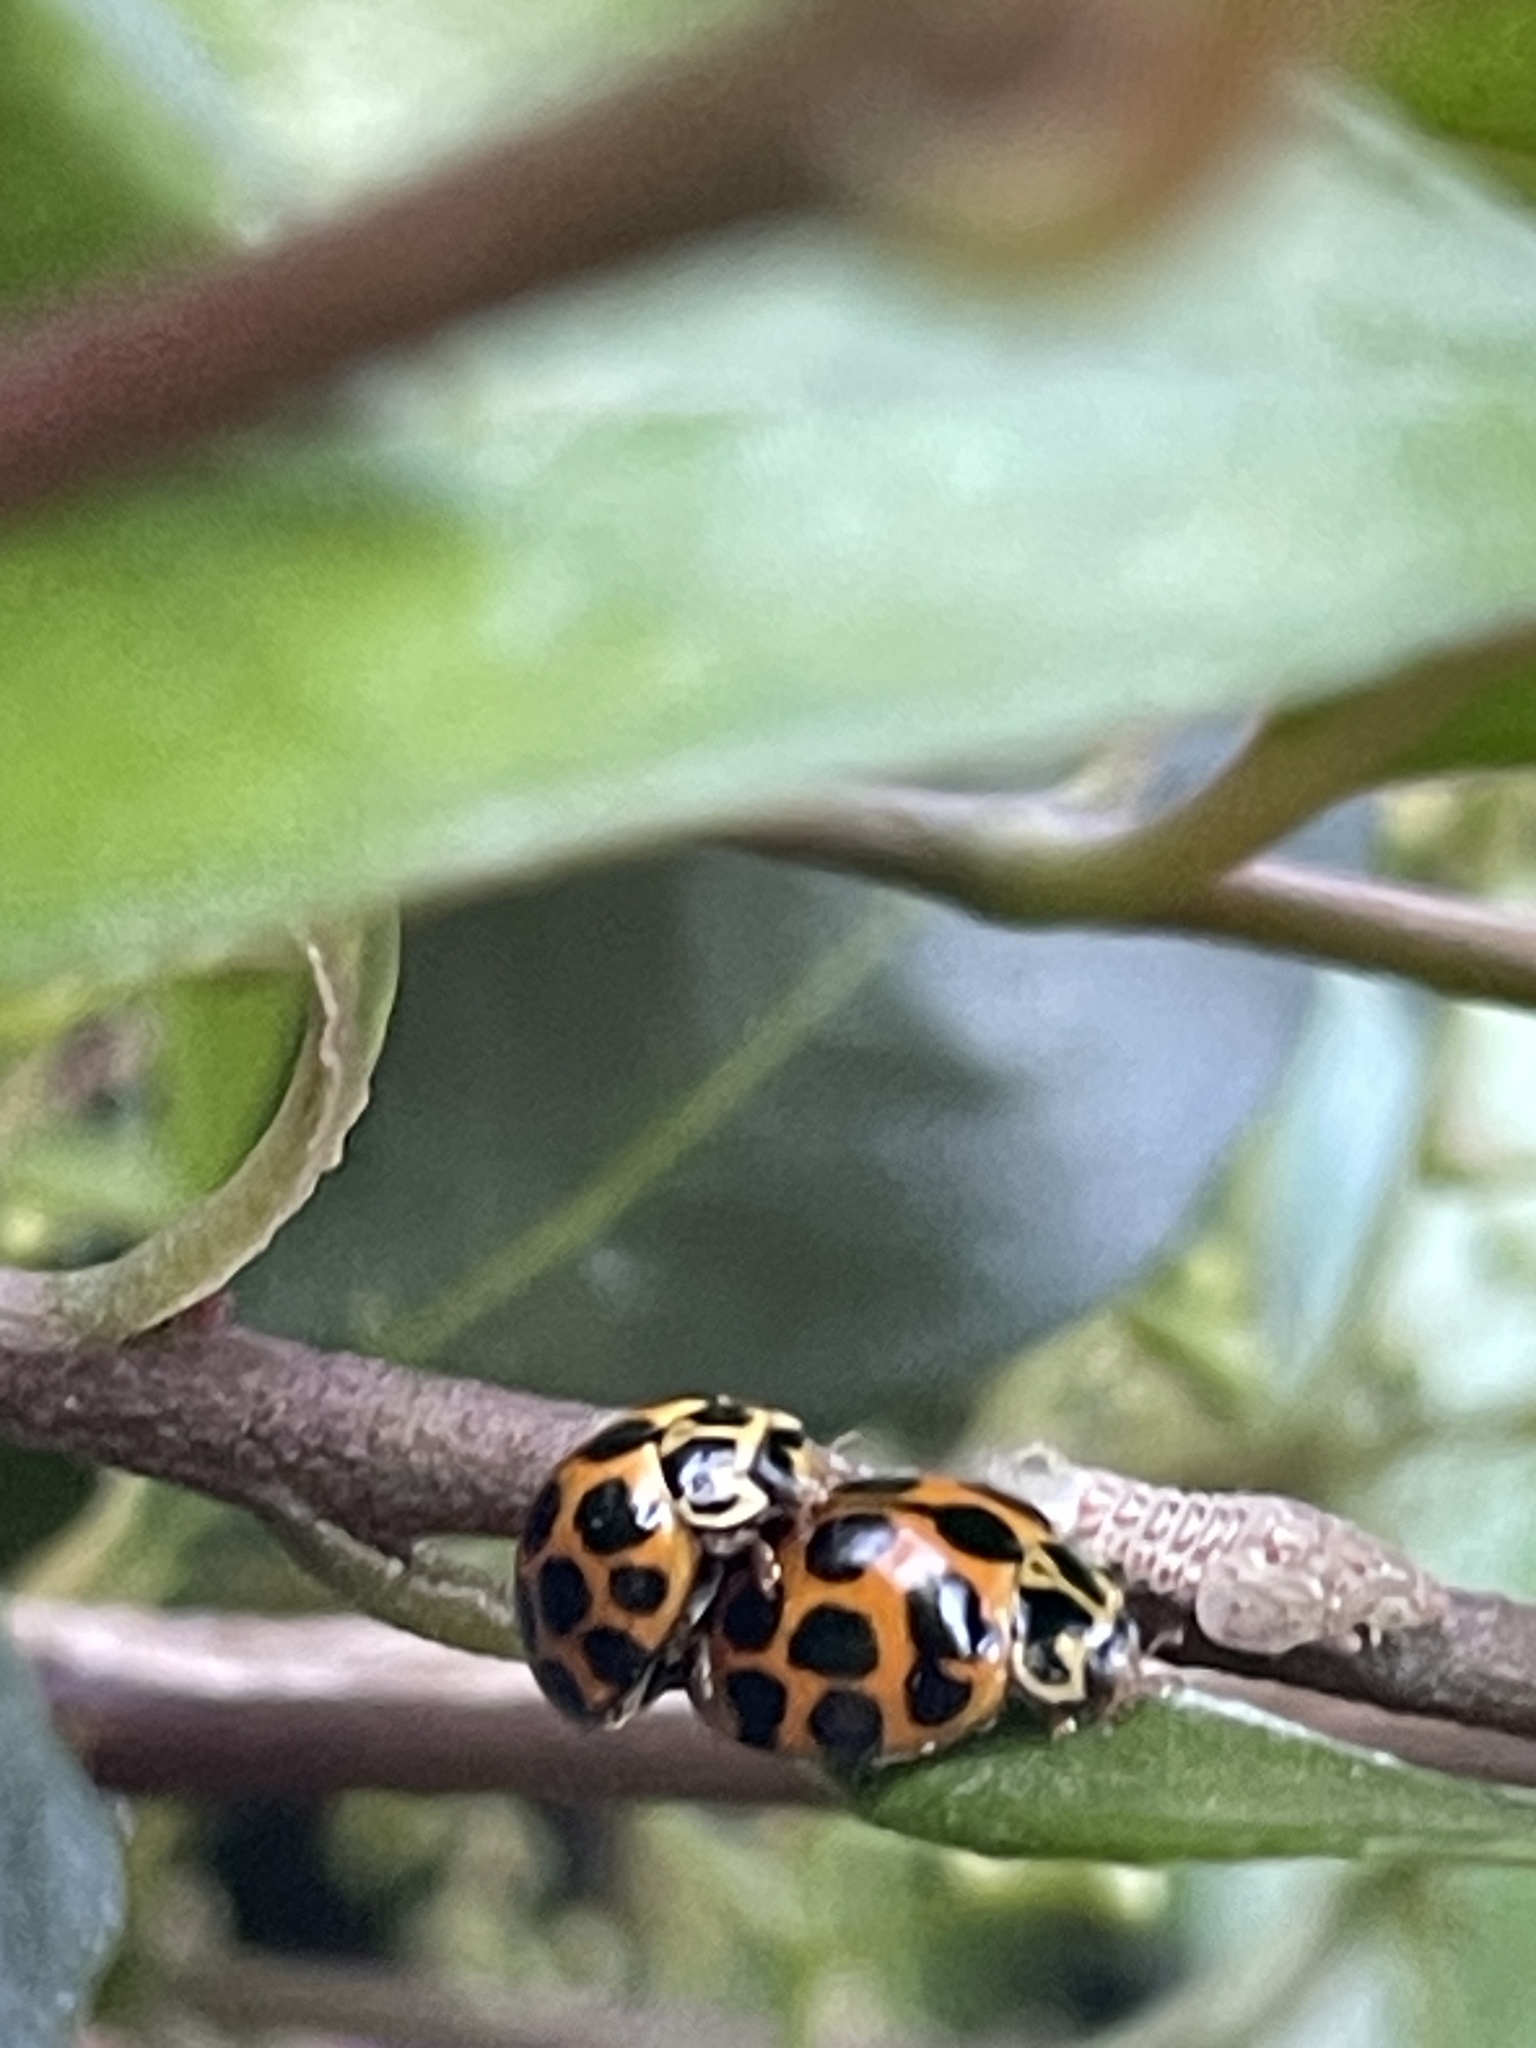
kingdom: Animalia
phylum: Arthropoda
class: Insecta
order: Coleoptera
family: Coccinellidae
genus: Harmonia
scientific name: Harmonia conformis
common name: Common spotted ladybird beetle
